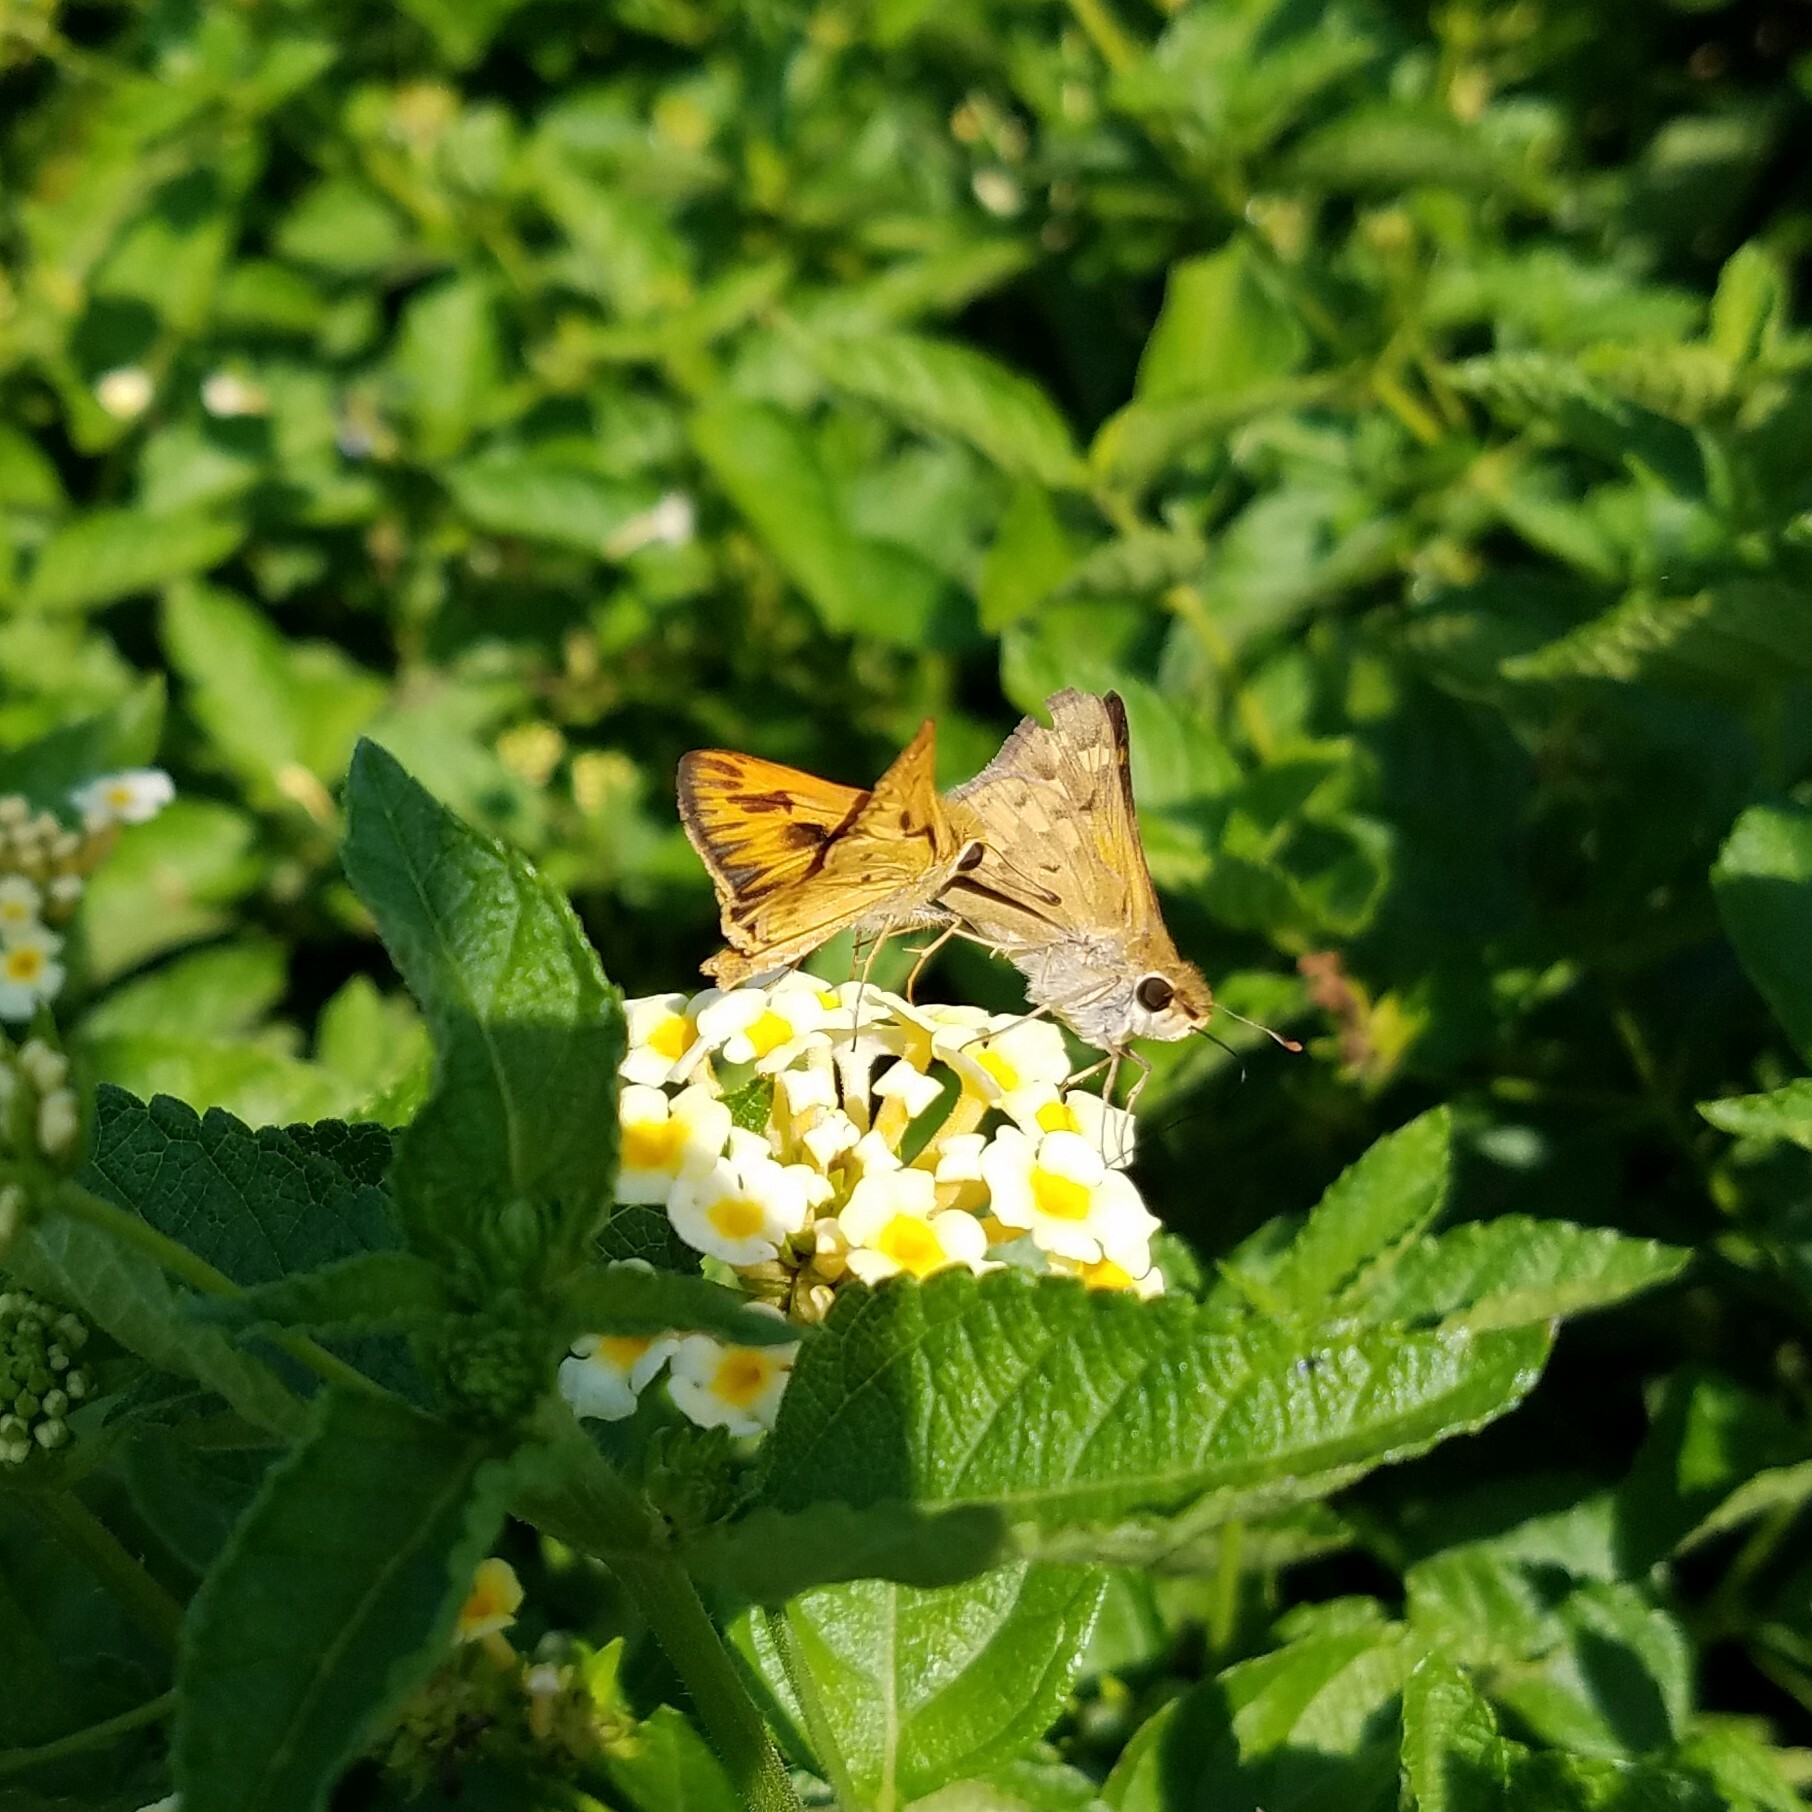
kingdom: Animalia
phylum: Arthropoda
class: Insecta
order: Lepidoptera
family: Hesperiidae
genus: Hylephila
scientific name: Hylephila phyleus
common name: Fiery skipper
